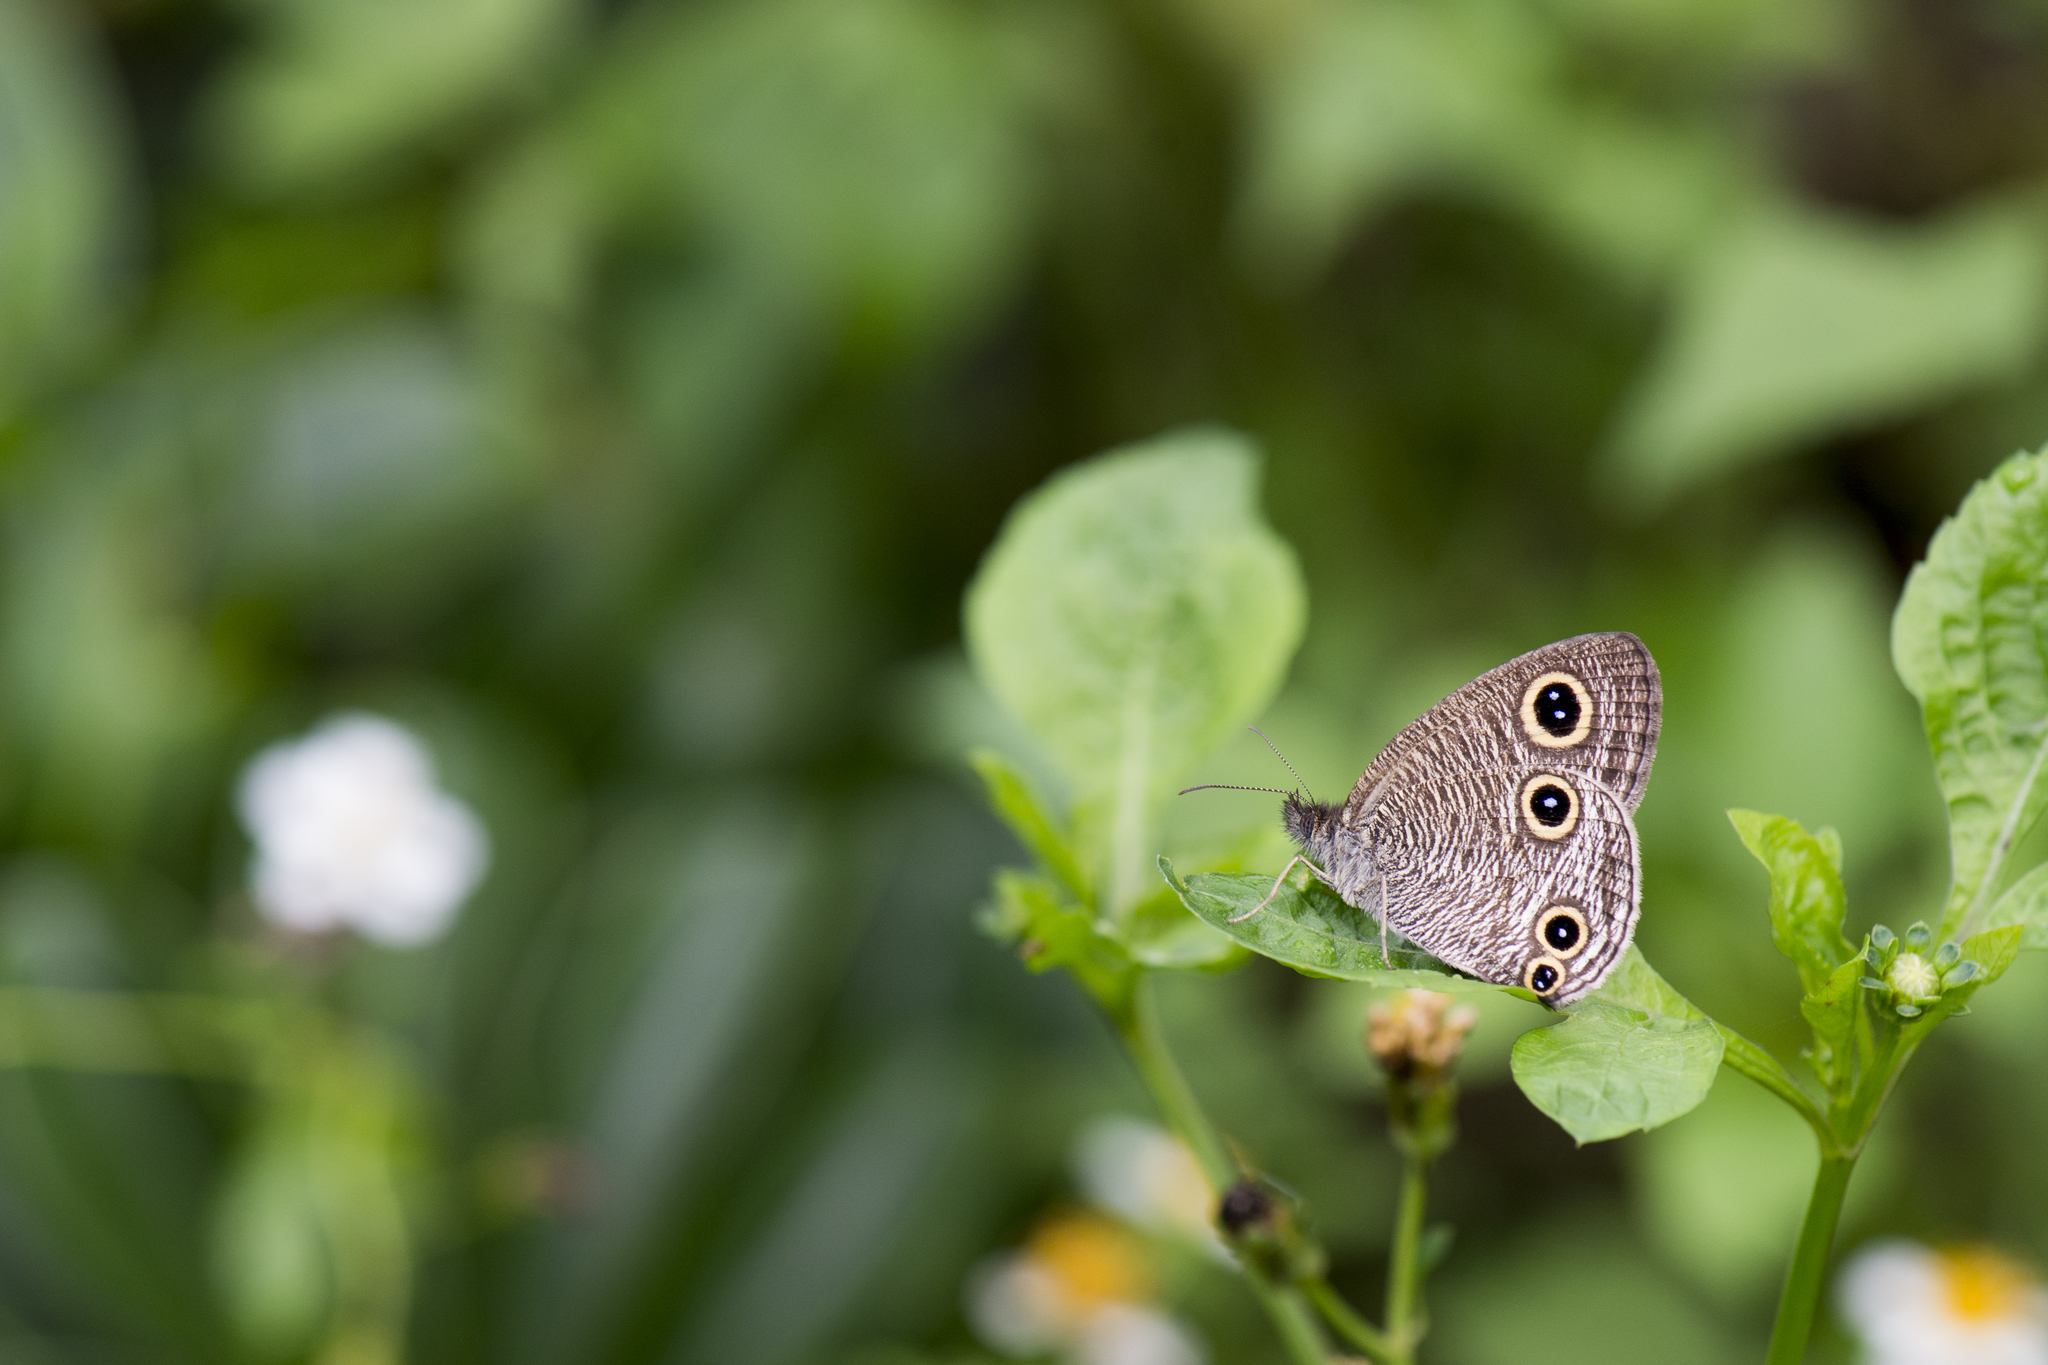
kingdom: Animalia
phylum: Arthropoda
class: Insecta
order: Lepidoptera
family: Nymphalidae
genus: Ypthima
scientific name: Ypthima multistriata
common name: Striated ringlet
